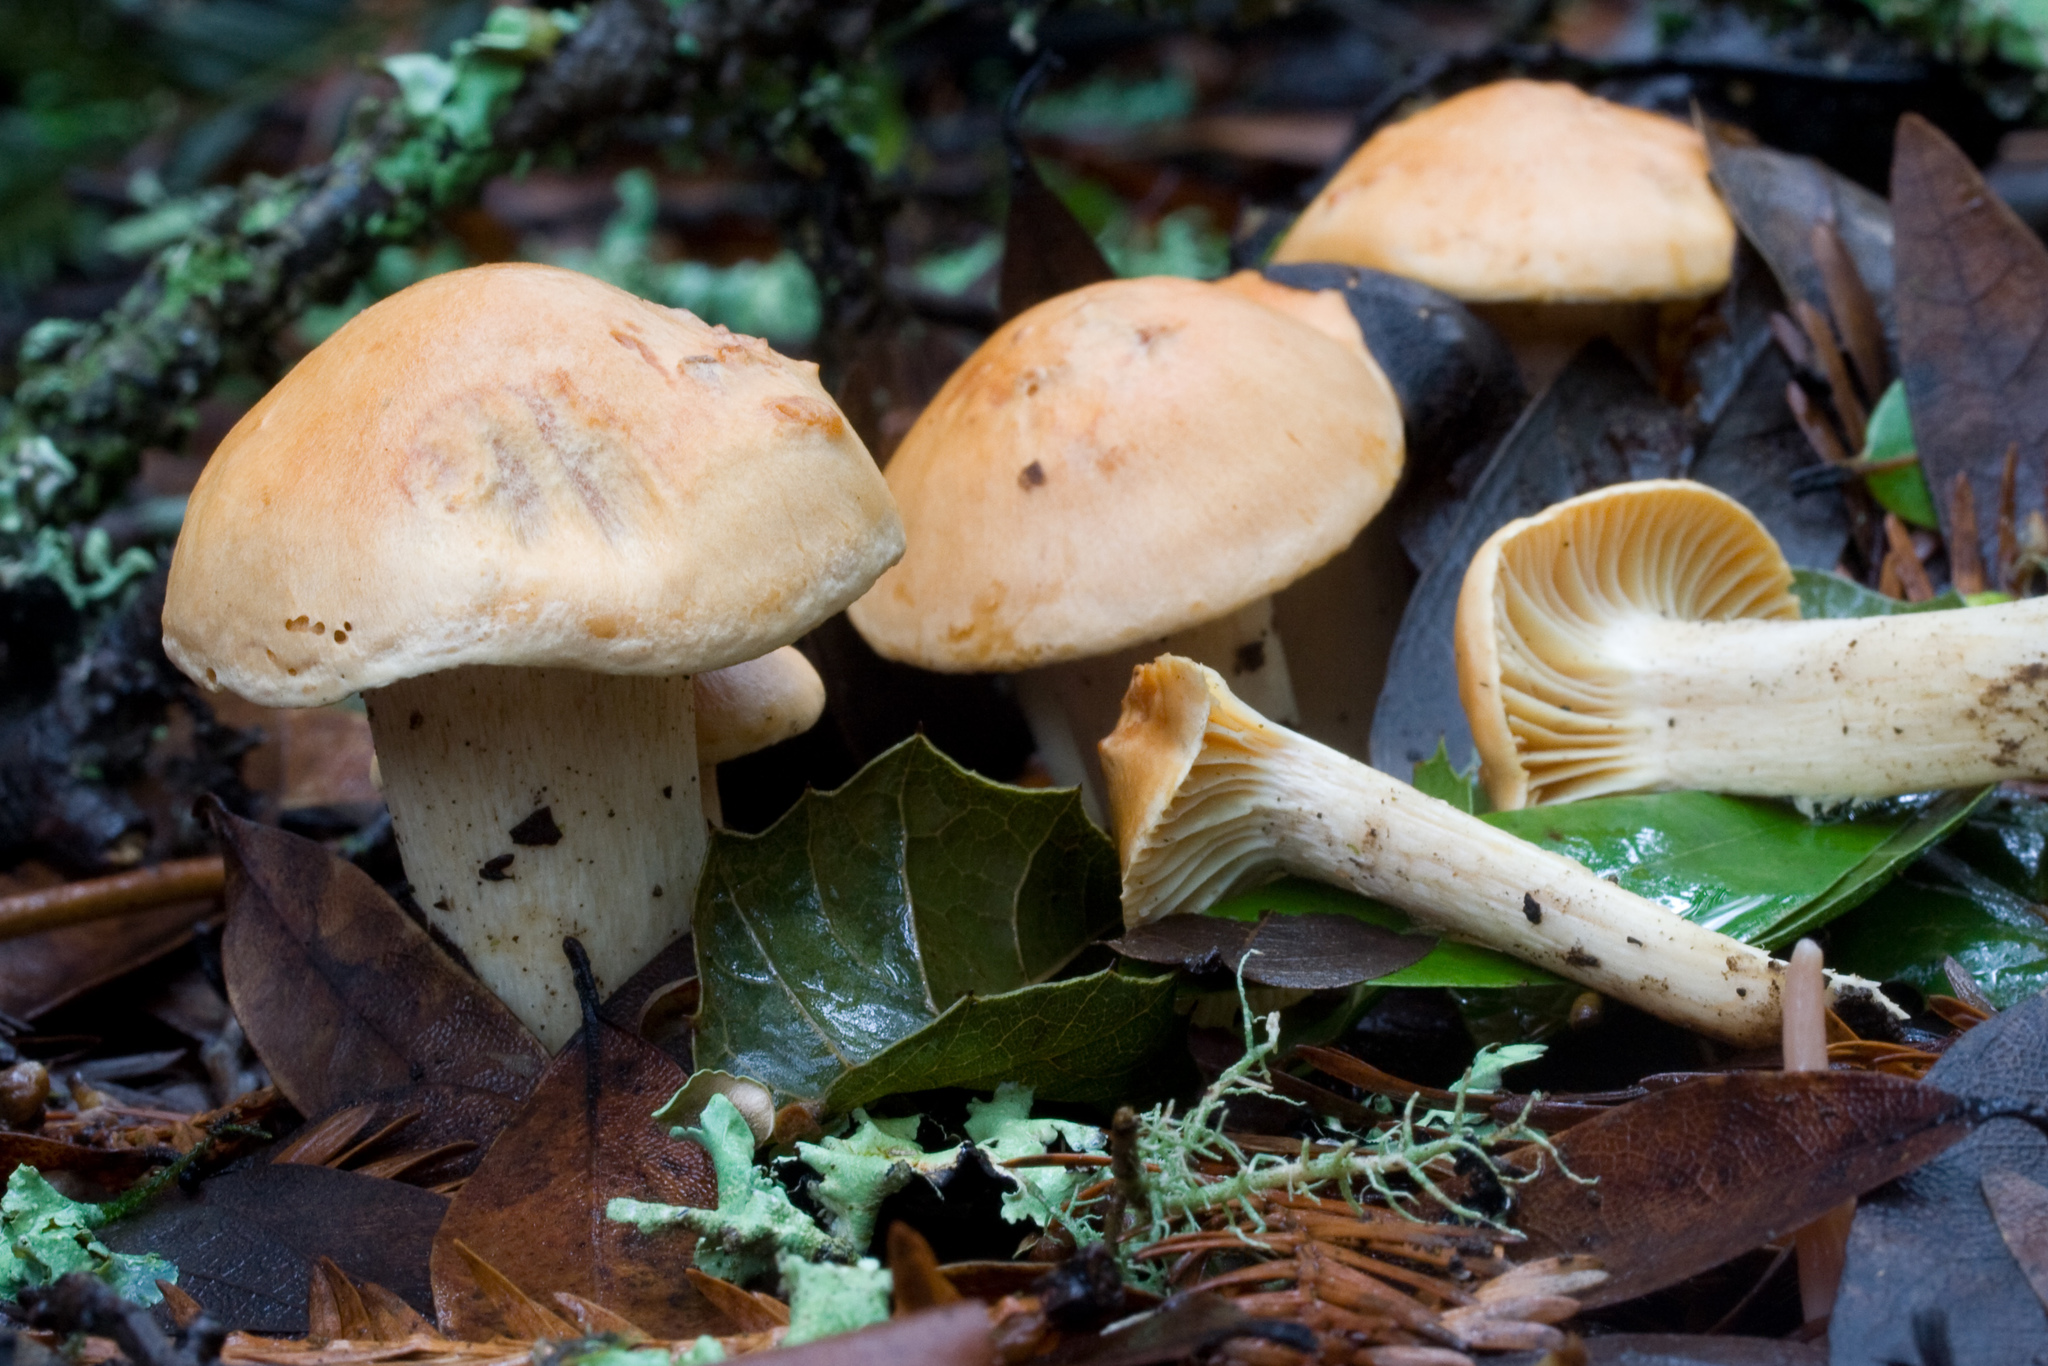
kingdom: Fungi
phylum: Basidiomycota
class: Agaricomycetes
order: Agaricales
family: Hygrophoraceae
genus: Cuphophyllus
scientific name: Cuphophyllus pratensis
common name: Meadow waxcap
